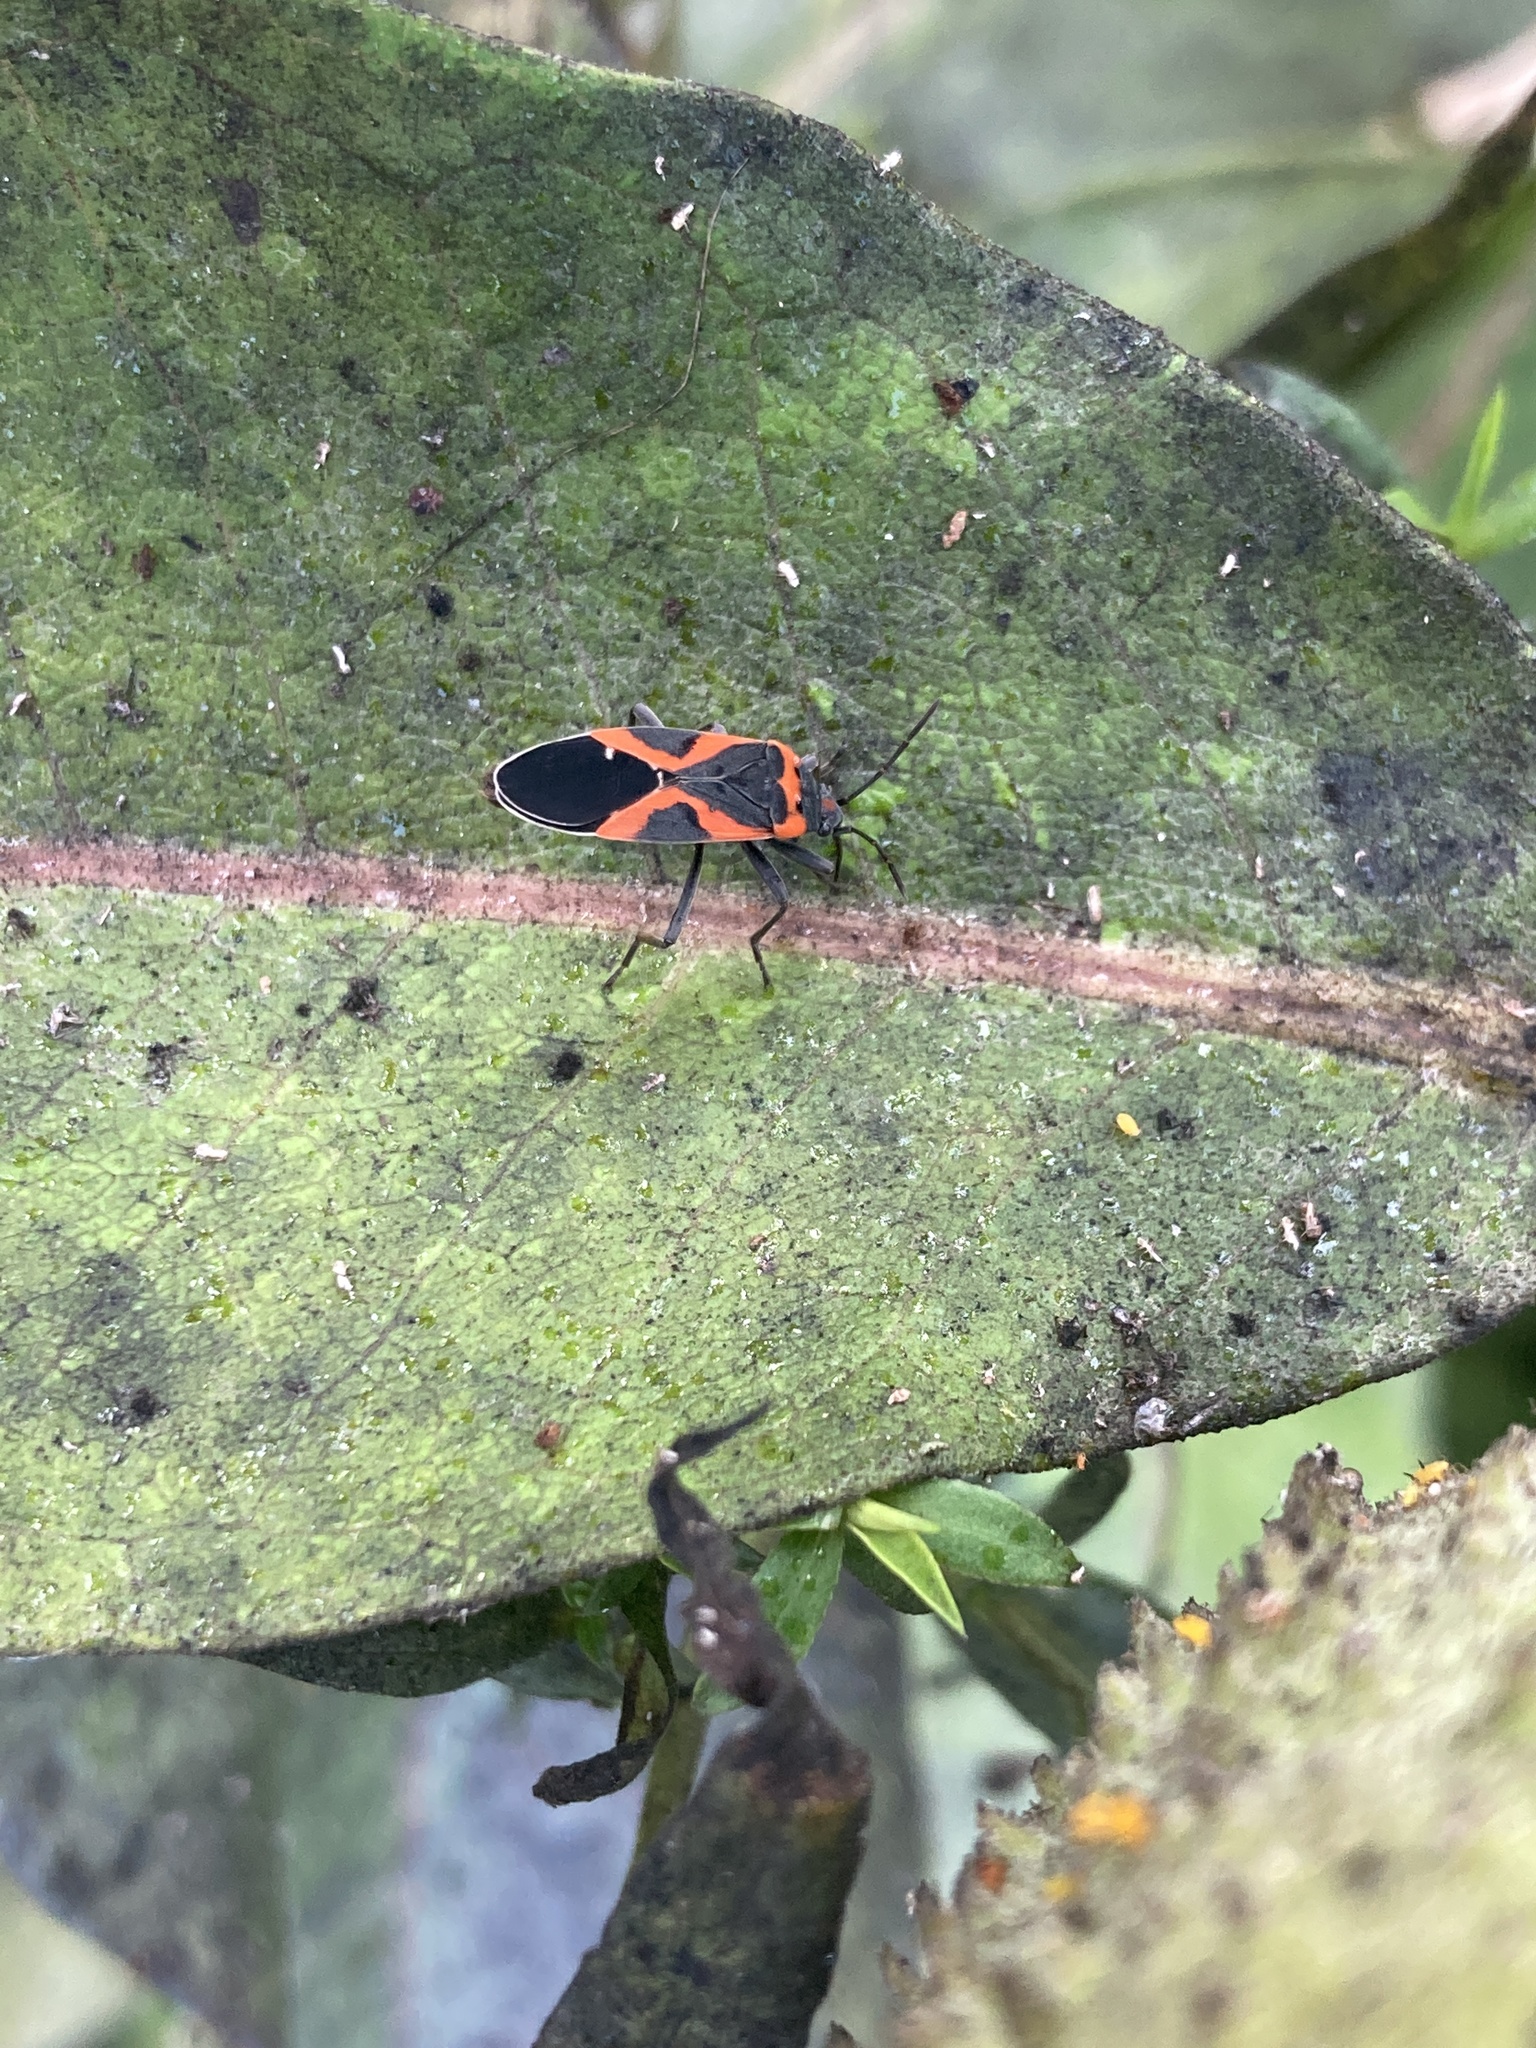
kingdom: Animalia
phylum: Arthropoda
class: Insecta
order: Hemiptera
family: Lygaeidae
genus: Lygaeus
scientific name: Lygaeus kalmii
